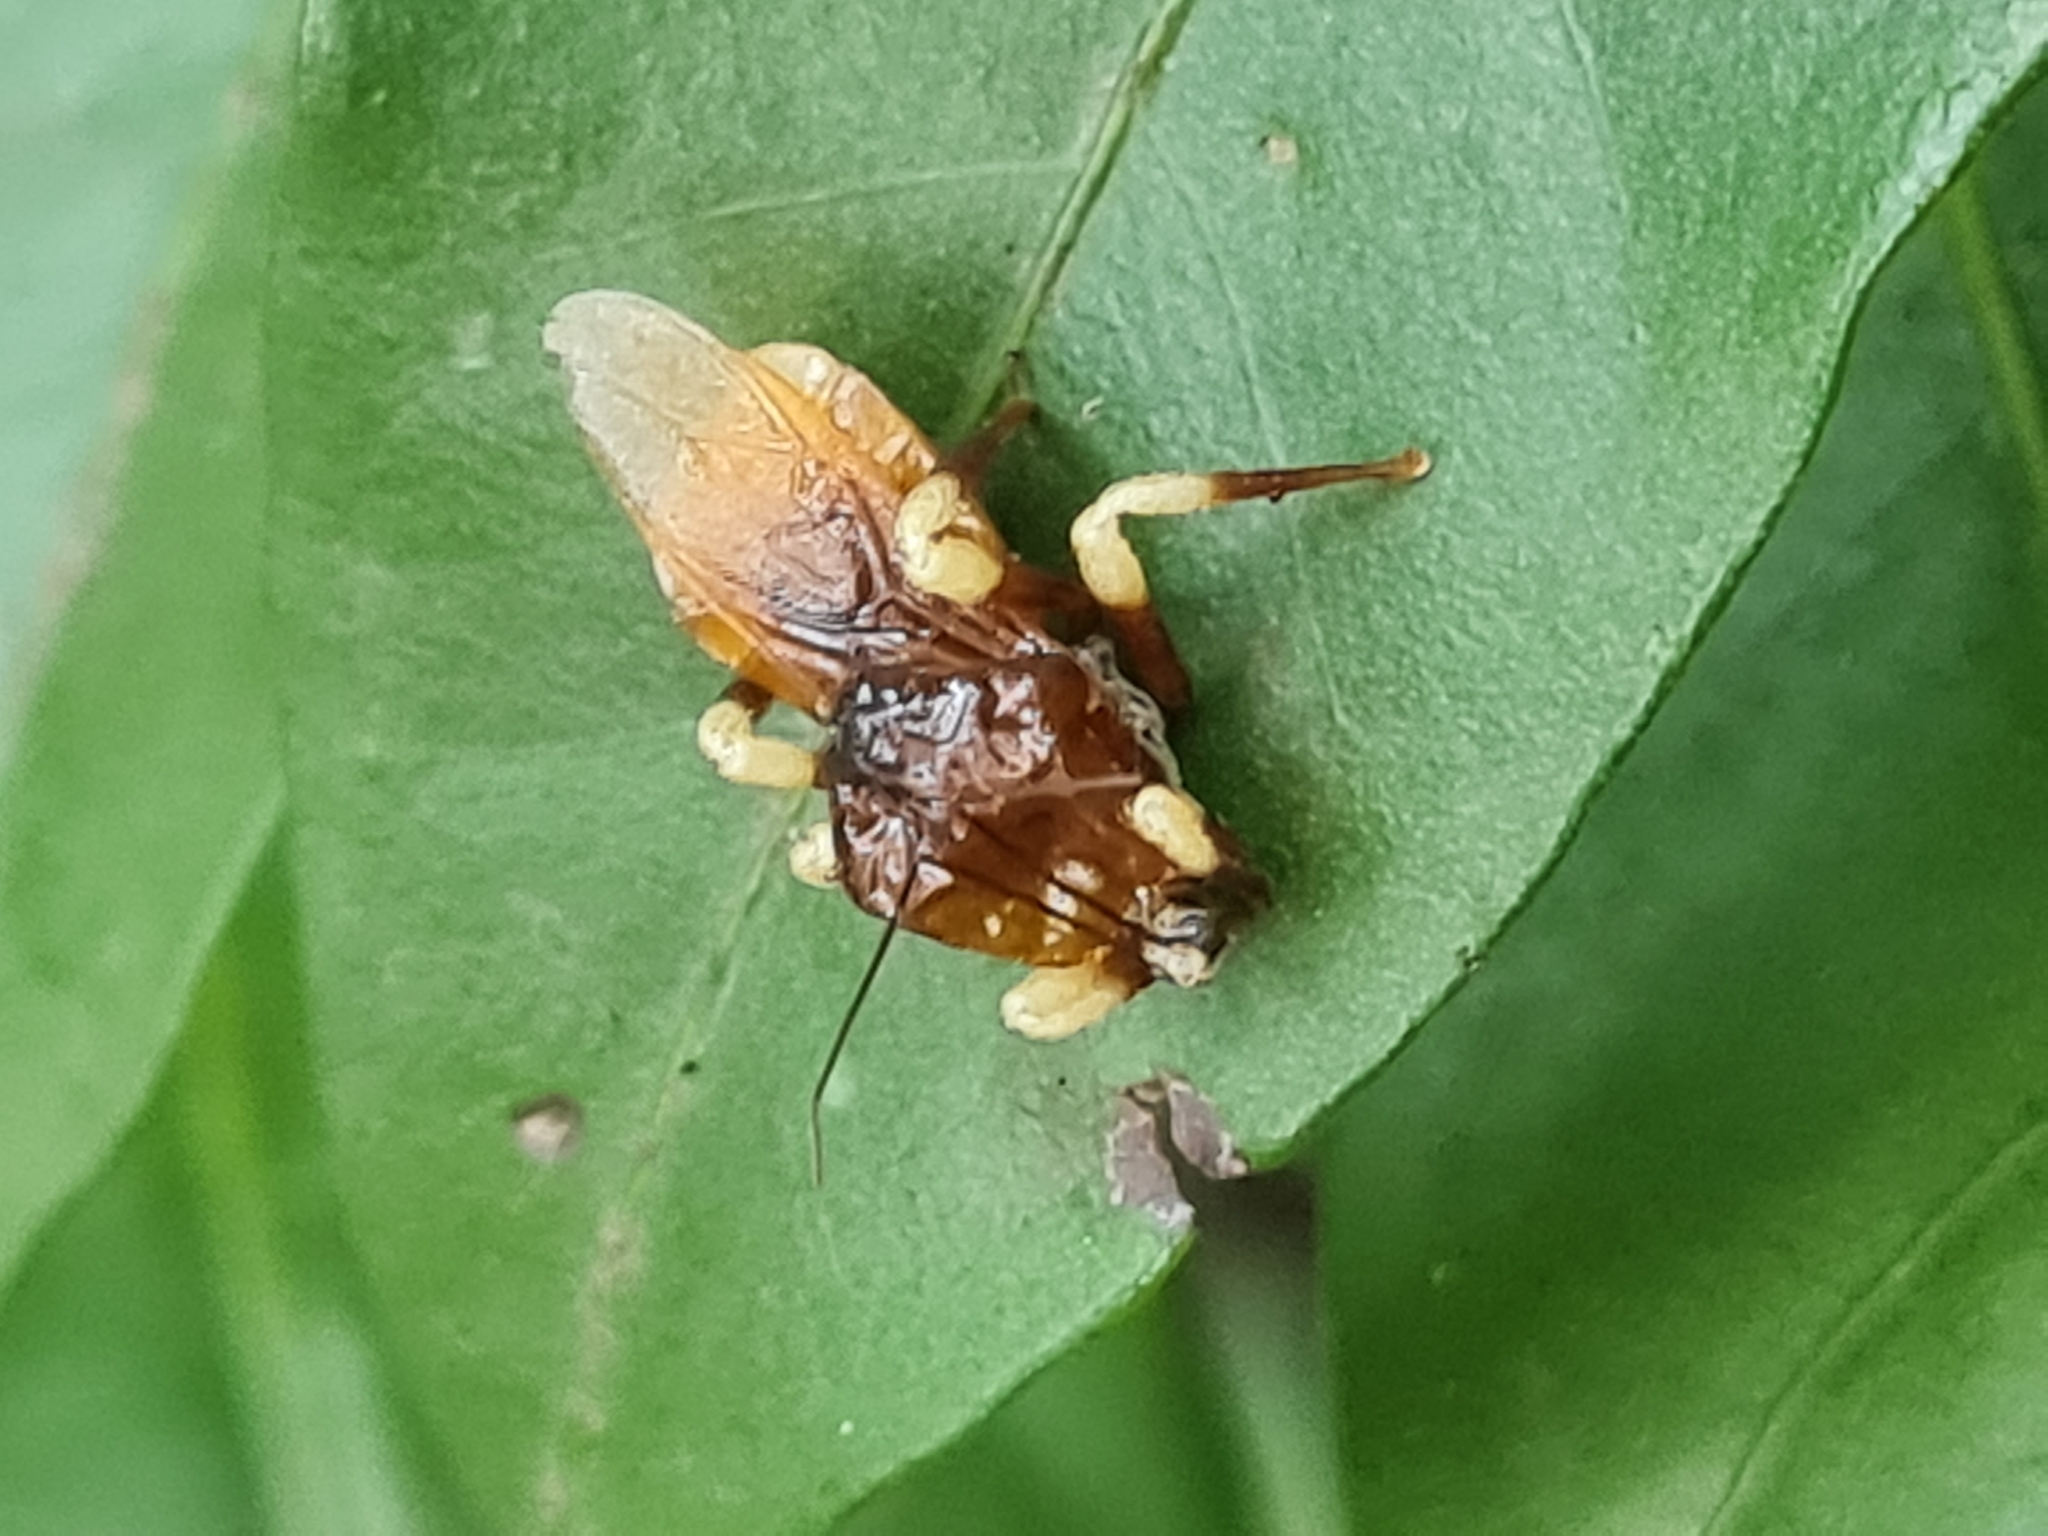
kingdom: Animalia
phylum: Arthropoda
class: Insecta
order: Hemiptera
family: Reduviidae
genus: Notocyrtus
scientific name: Notocyrtus inflatus
